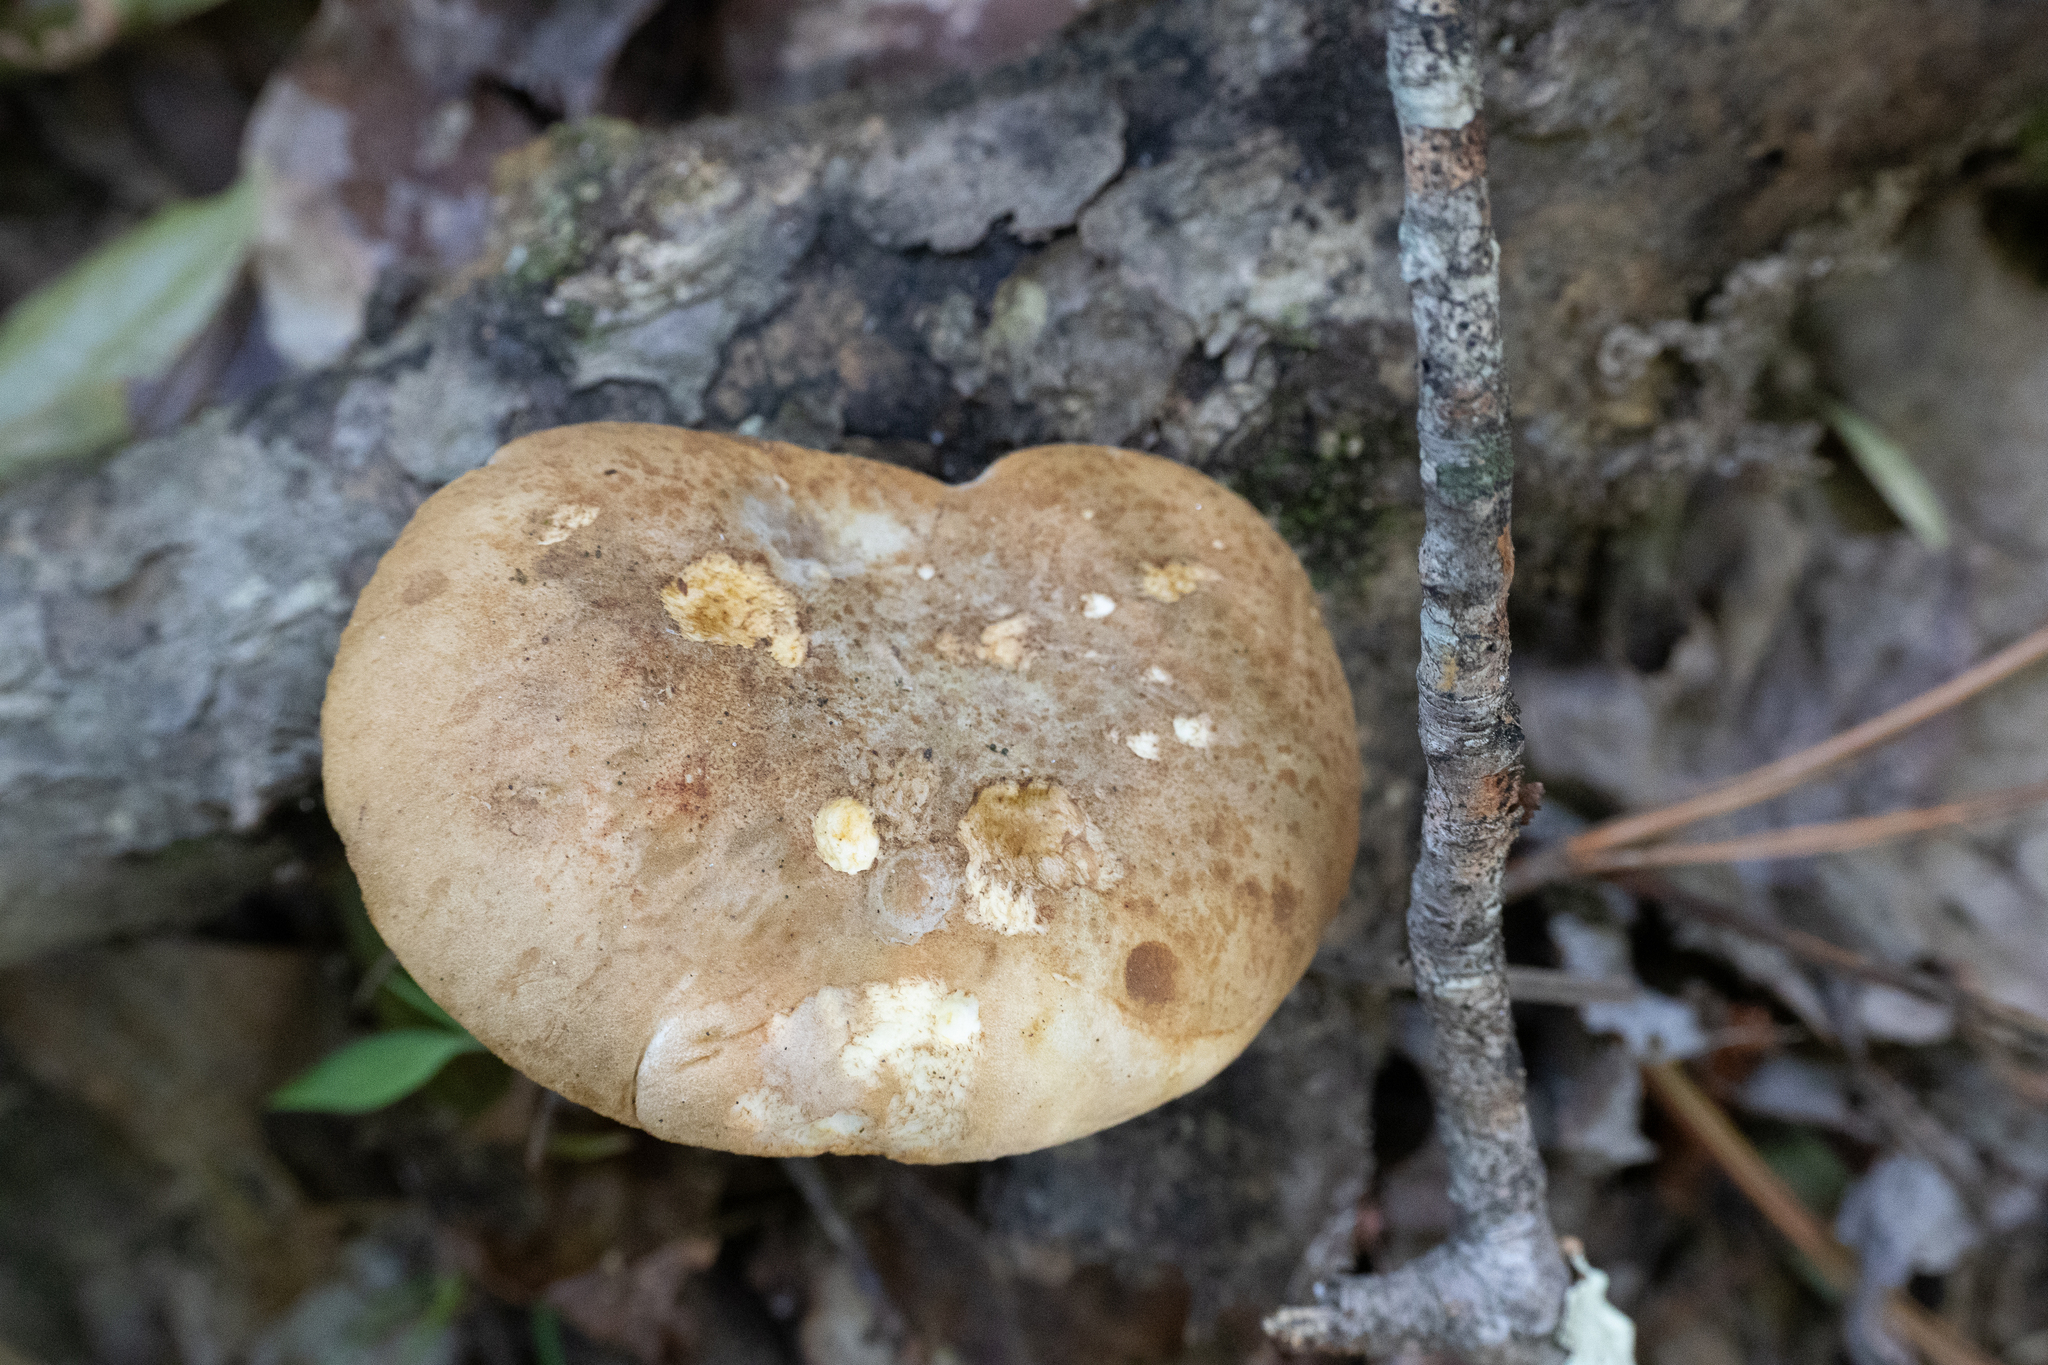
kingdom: Fungi
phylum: Basidiomycota
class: Agaricomycetes
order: Boletales
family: Tapinellaceae
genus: Tapinella
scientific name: Tapinella atrotomentosa
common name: Velvet rollrim
